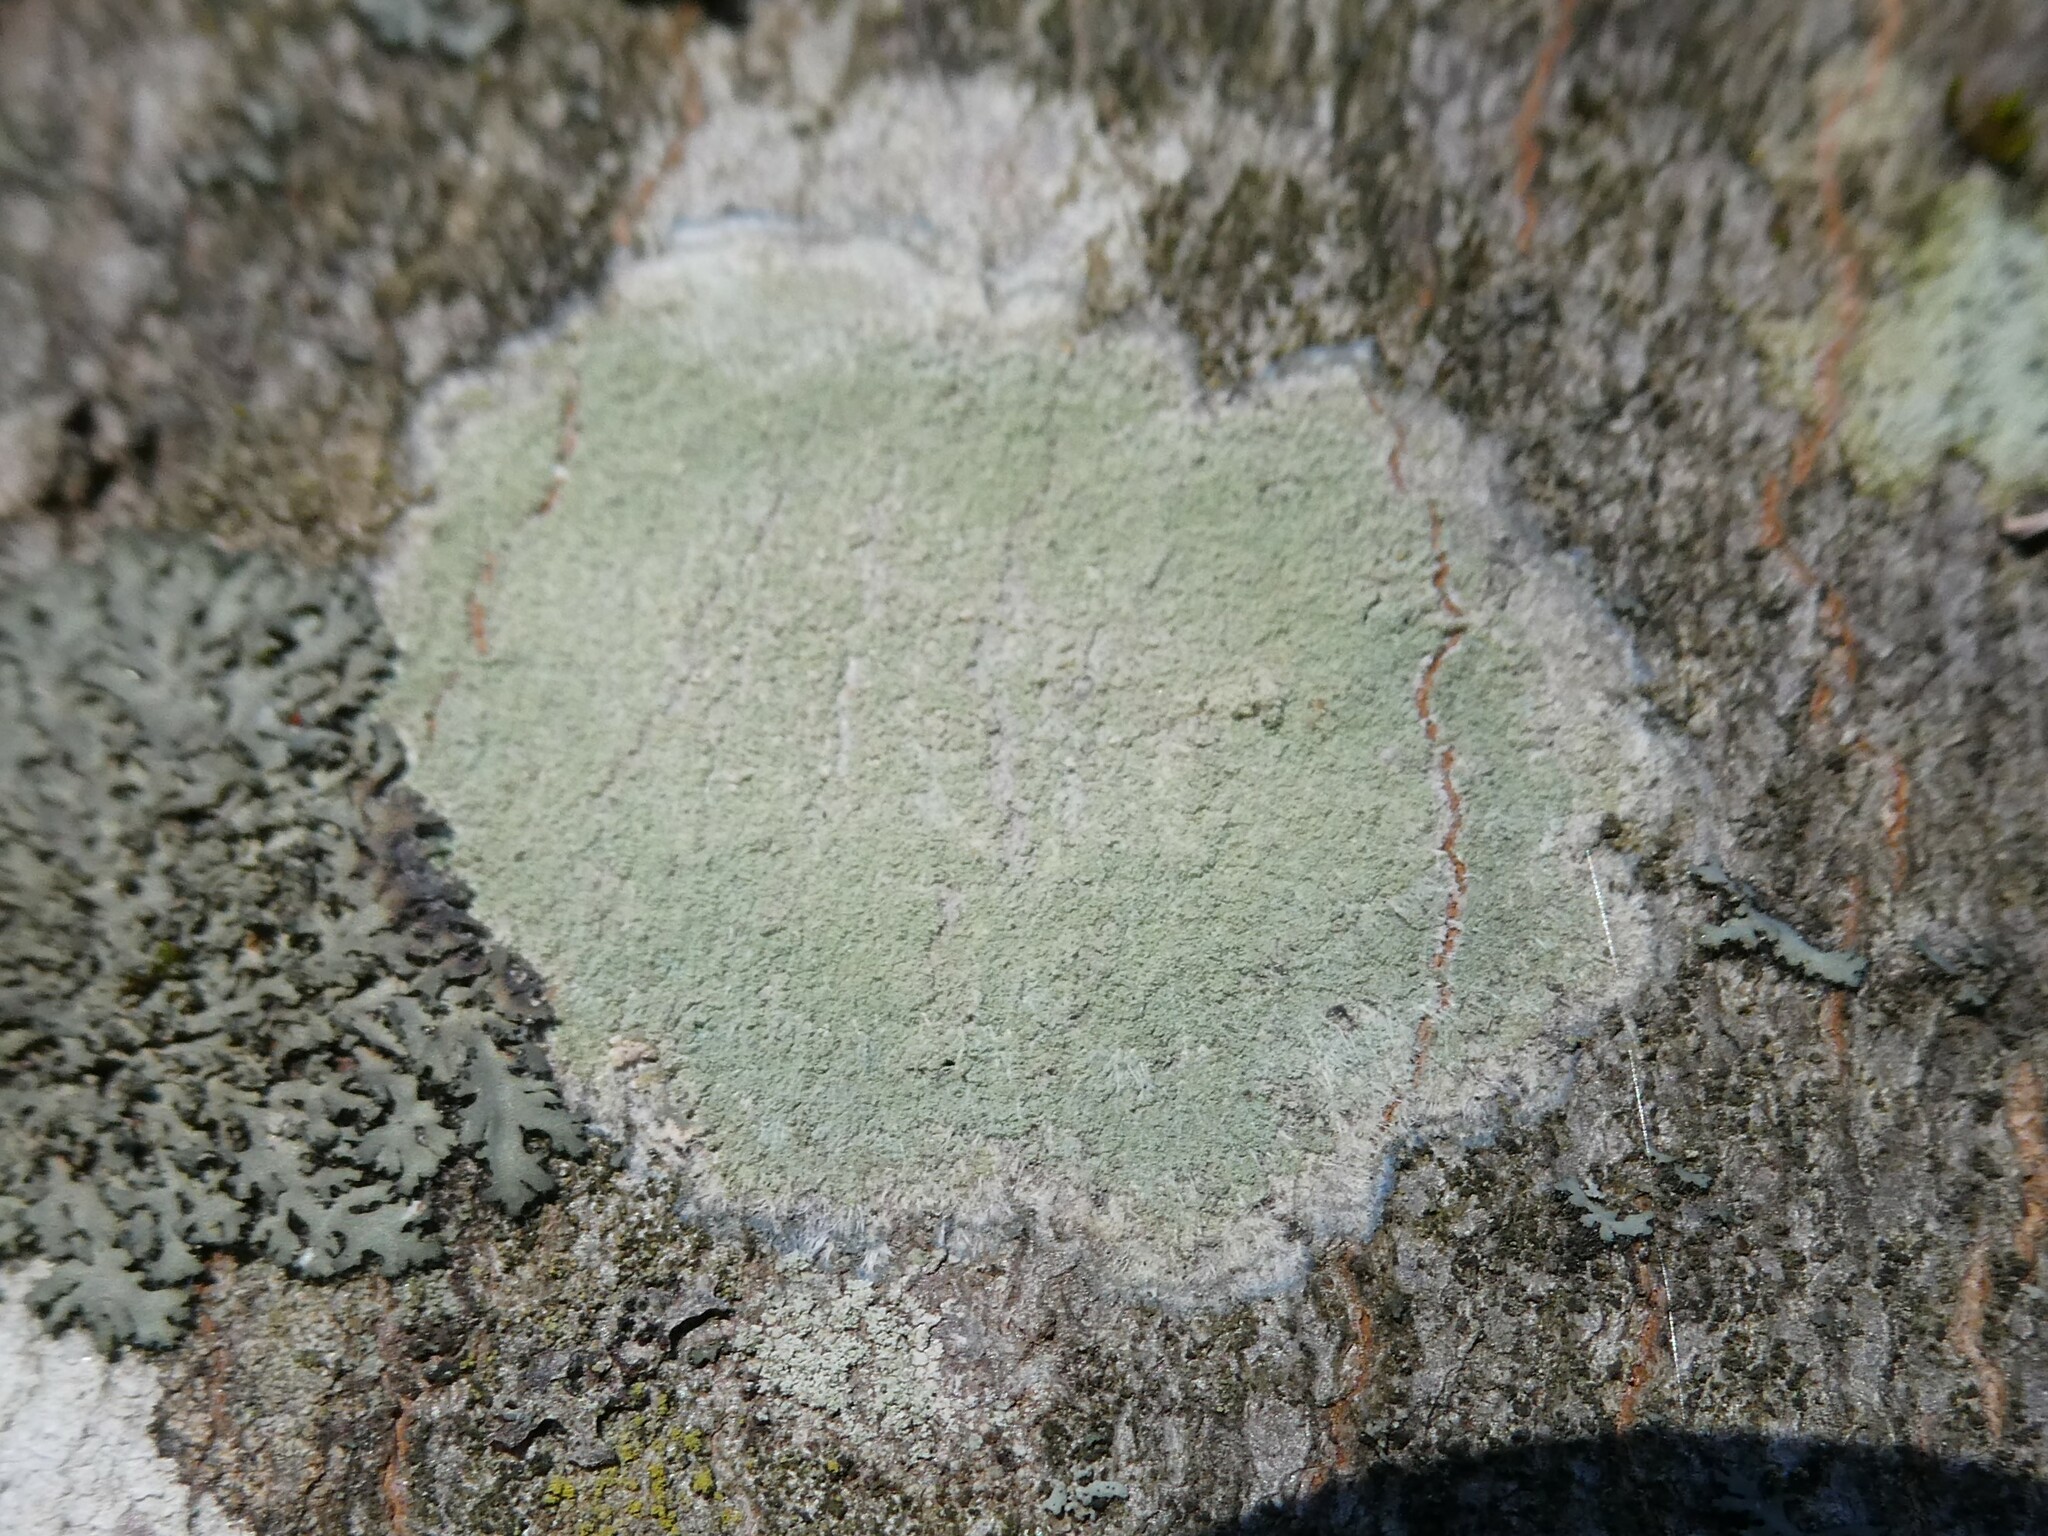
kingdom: Fungi
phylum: Ascomycota
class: Lecanoromycetes
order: Pertusariales
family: Pertusariaceae
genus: Verseghya
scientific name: Verseghya thysanophora
